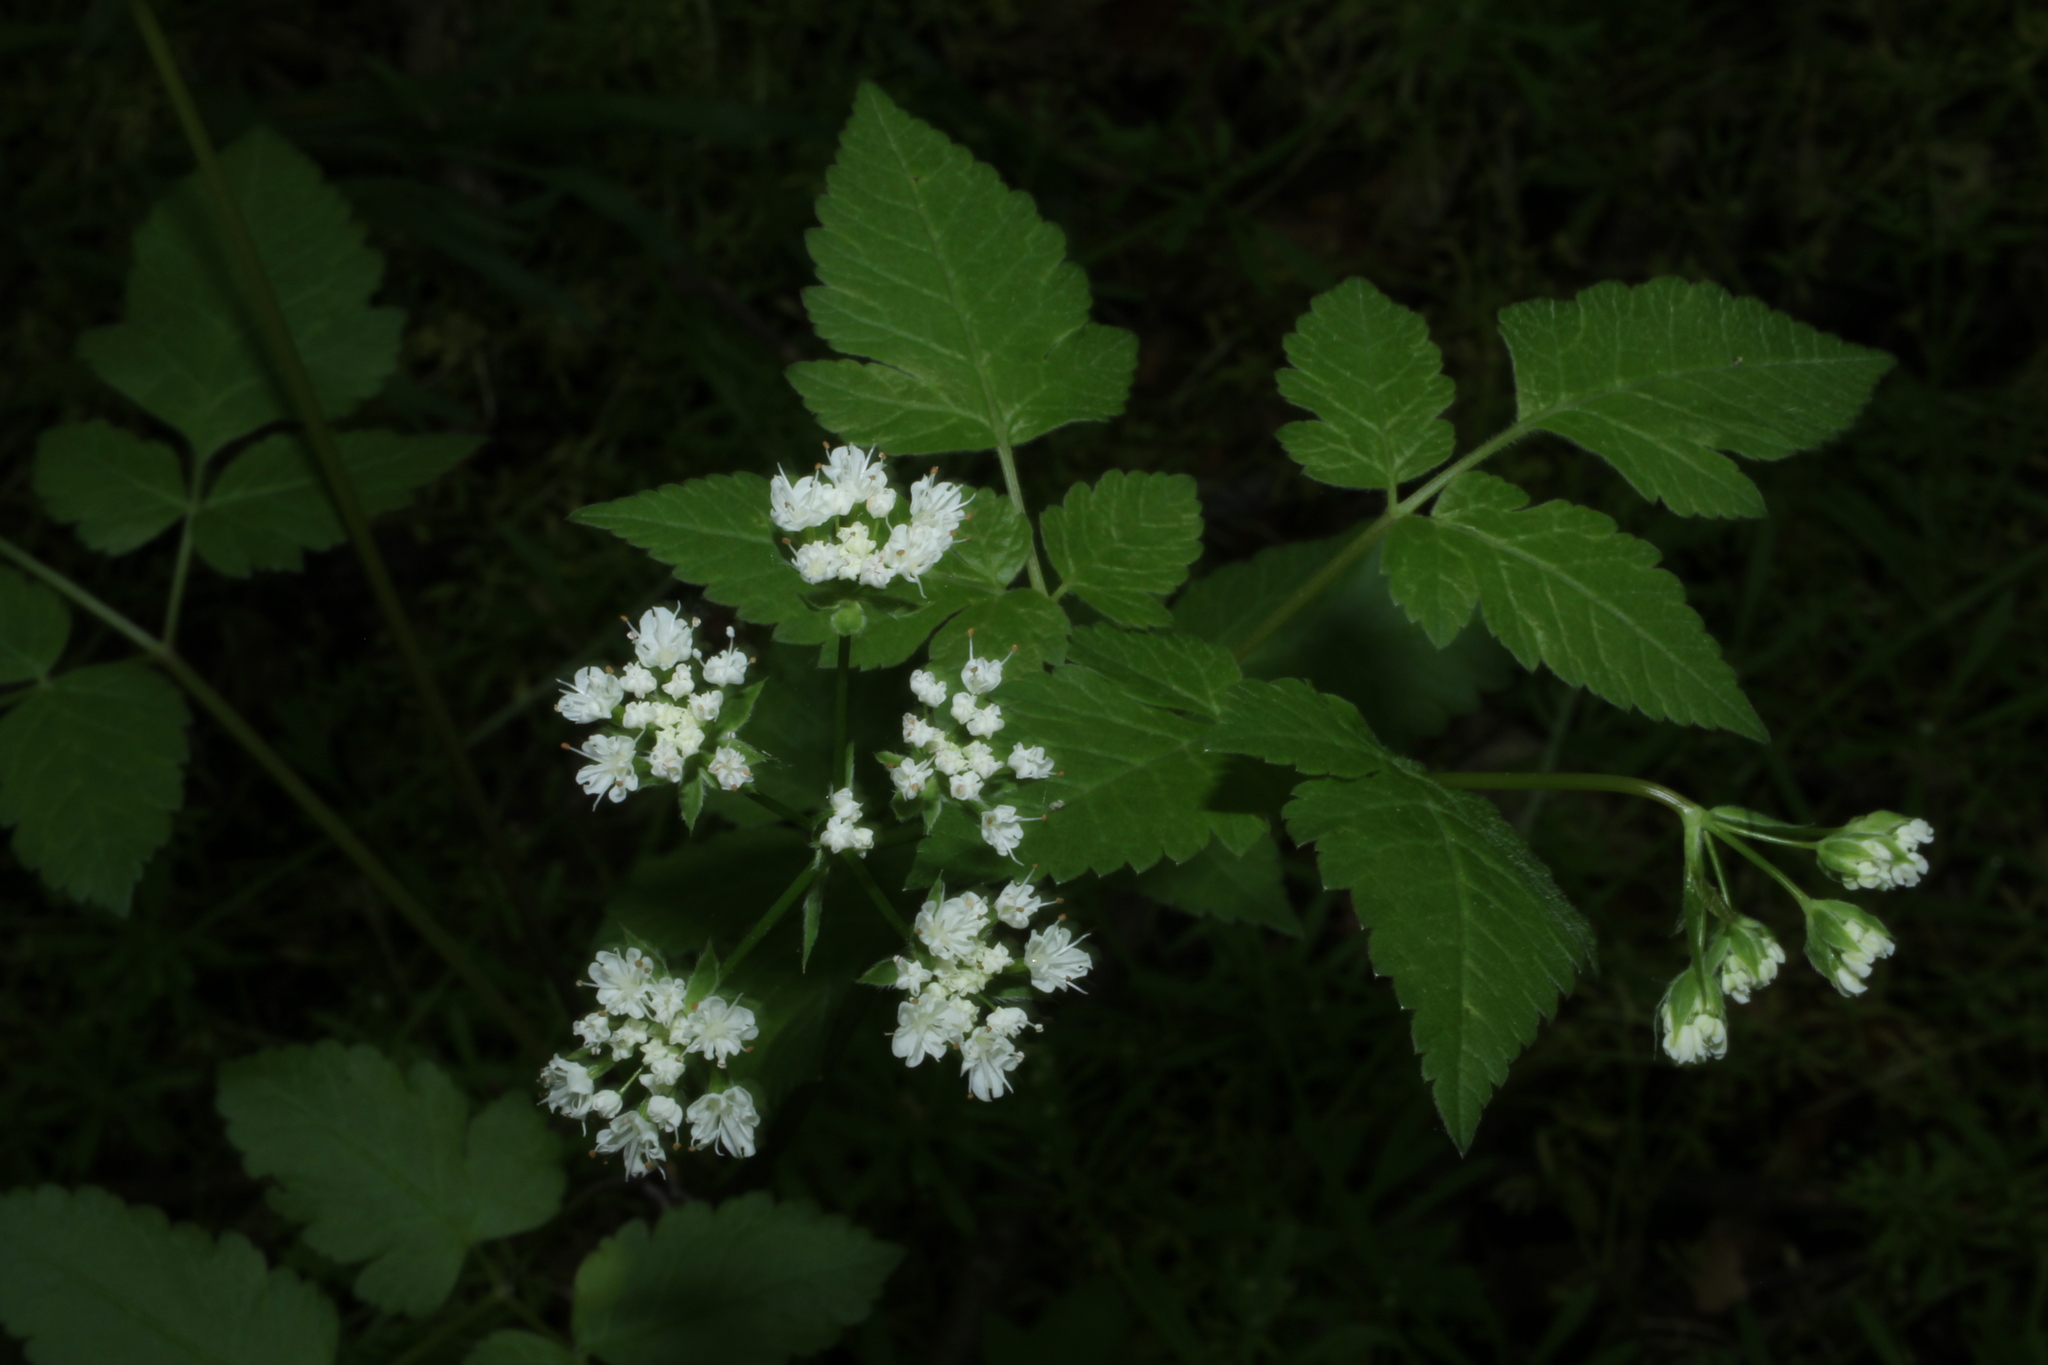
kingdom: Plantae
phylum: Tracheophyta
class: Magnoliopsida
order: Apiales
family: Apiaceae
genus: Osmorhiza
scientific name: Osmorhiza longistylis
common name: Smooth sweet cicely
